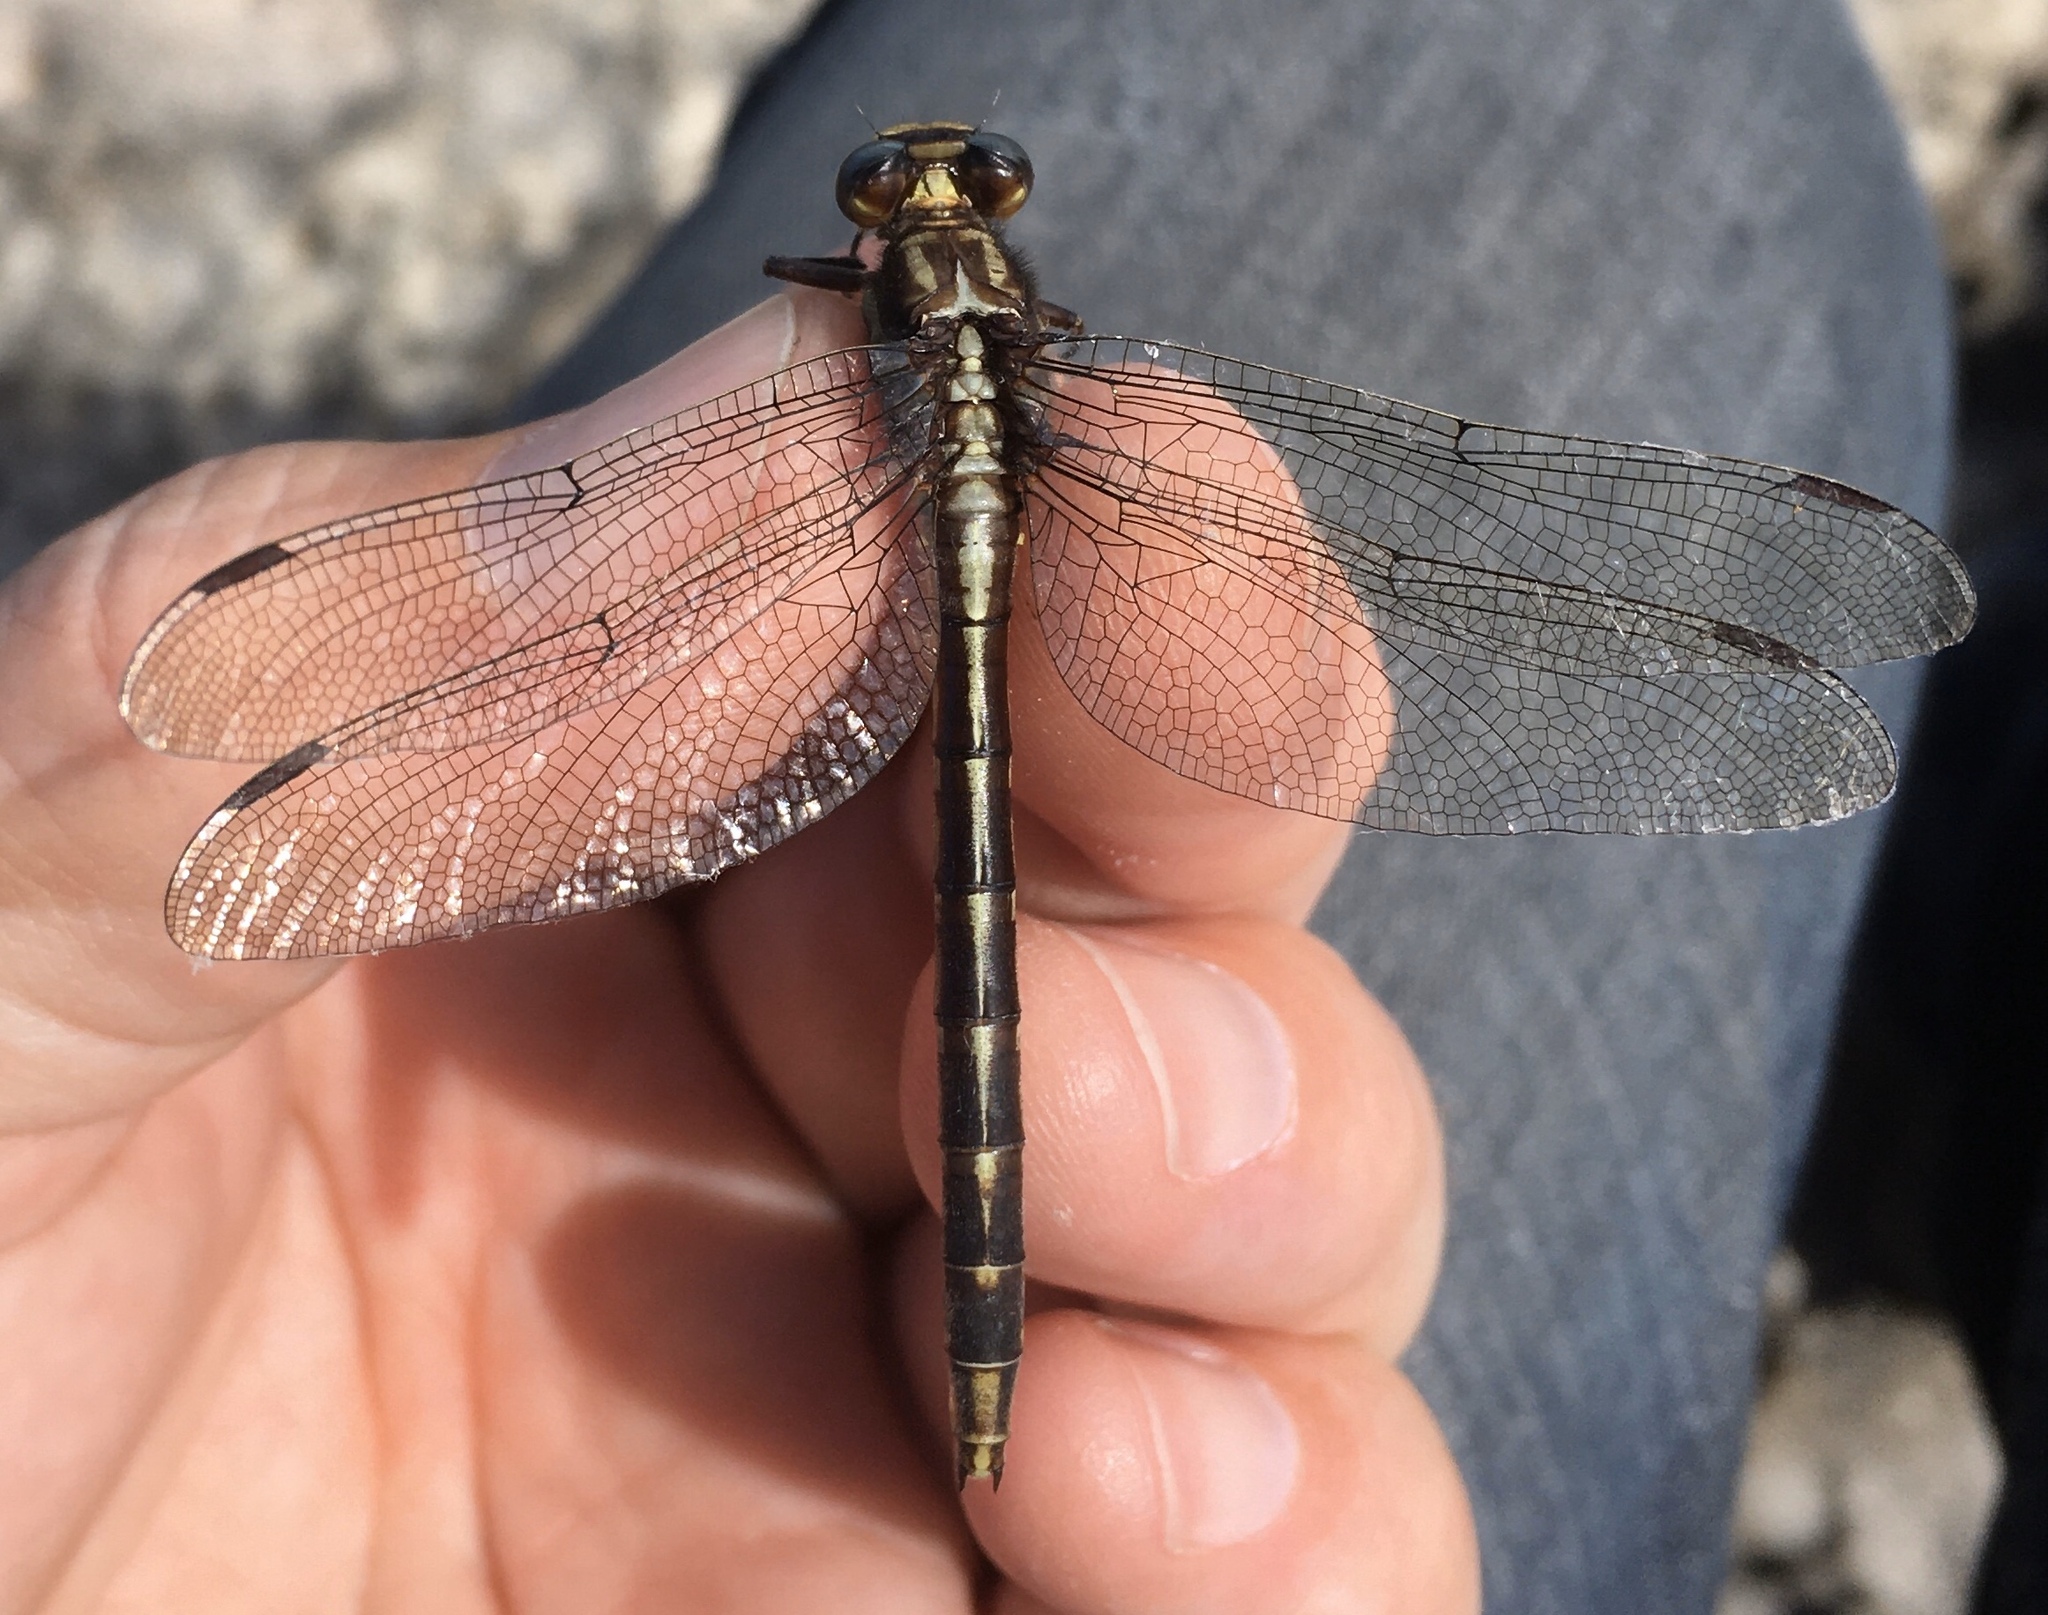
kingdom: Animalia
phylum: Arthropoda
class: Insecta
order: Odonata
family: Gomphidae
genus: Phanogomphus
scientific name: Phanogomphus lividus
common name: Ashy clubtail
